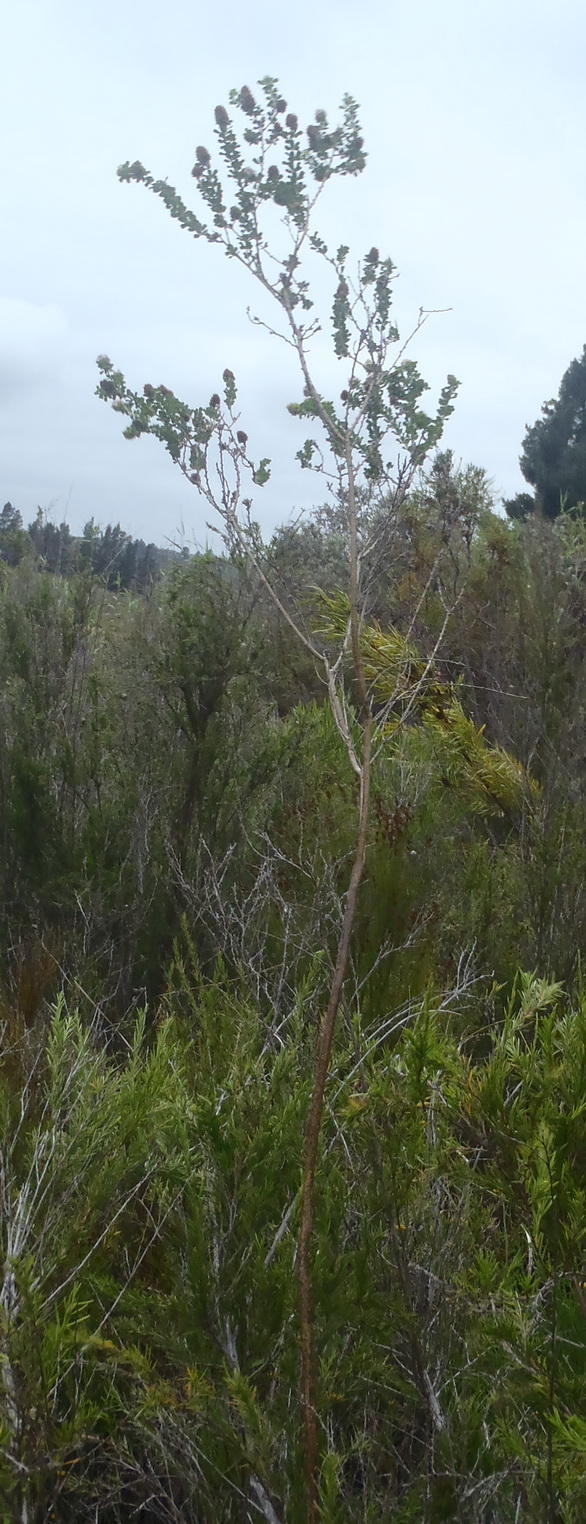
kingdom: Plantae
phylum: Tracheophyta
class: Magnoliopsida
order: Fabales
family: Fabaceae
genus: Psoralea
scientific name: Psoralea stachyera
